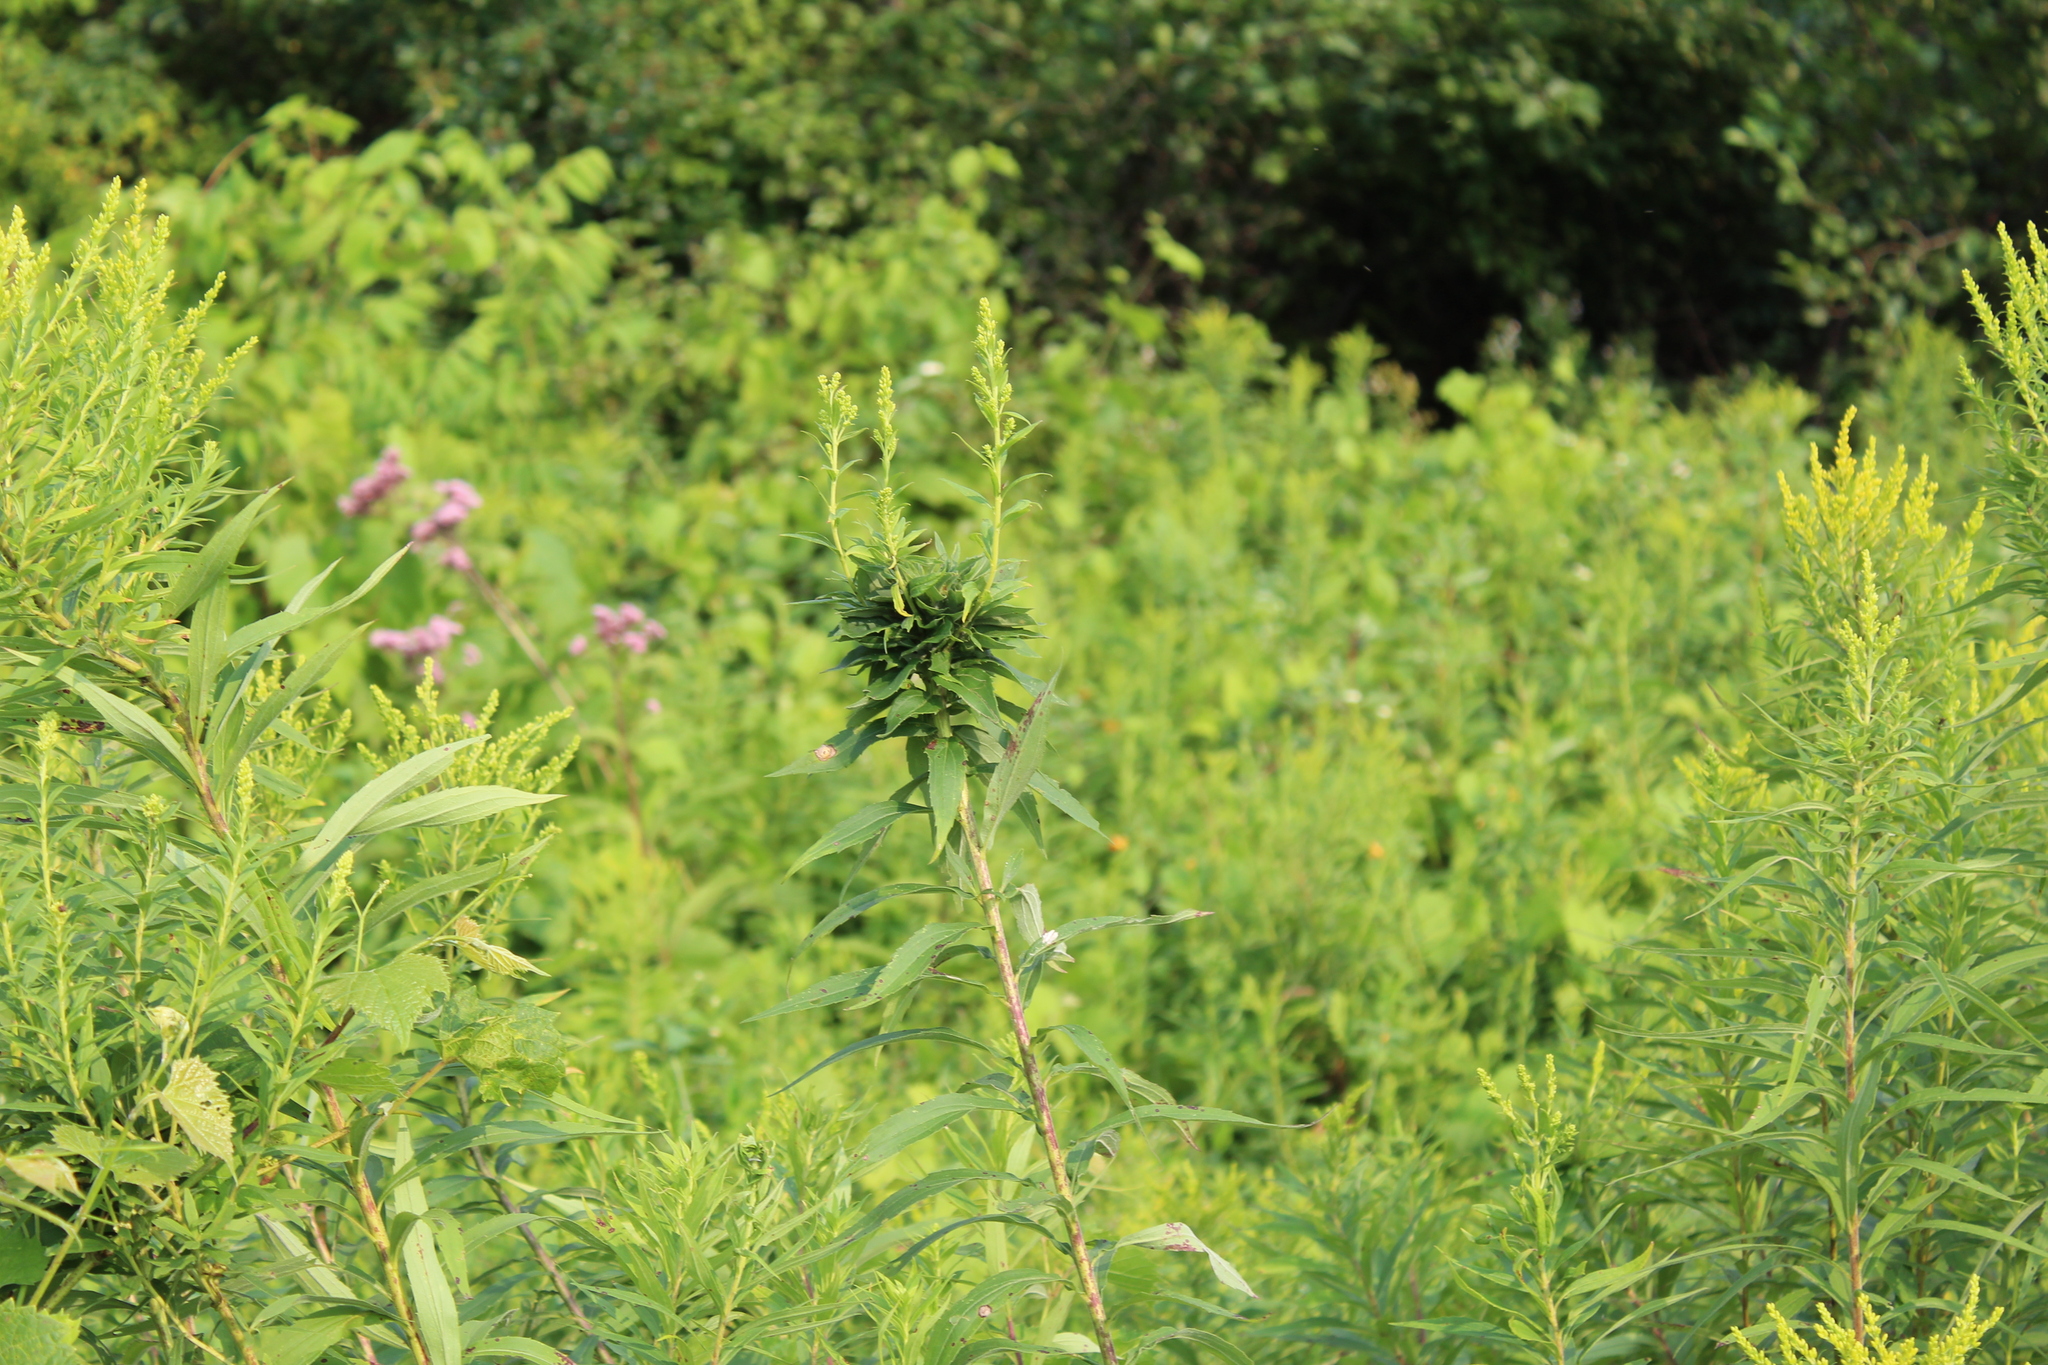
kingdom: Animalia
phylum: Arthropoda
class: Insecta
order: Diptera
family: Cecidomyiidae
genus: Rhopalomyia
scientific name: Rhopalomyia capitata
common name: Giant goldenrod bunch gall midge
